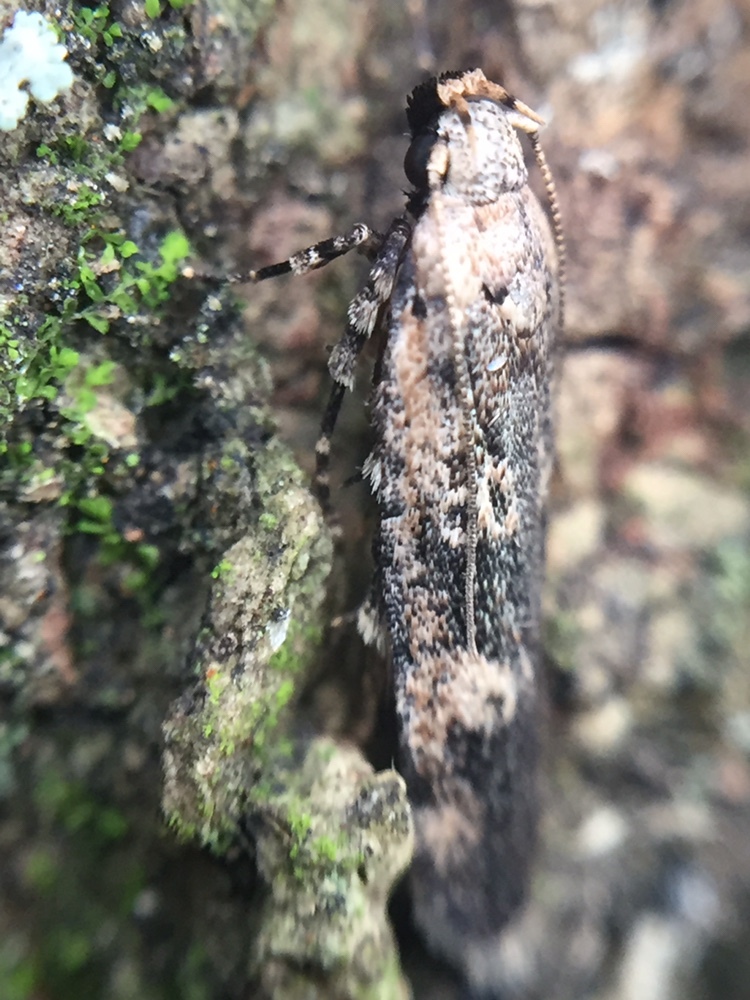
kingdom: Animalia
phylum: Arthropoda
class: Insecta
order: Lepidoptera
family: Gelechiidae
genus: Anisoplaca
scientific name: Anisoplaca cosmia
